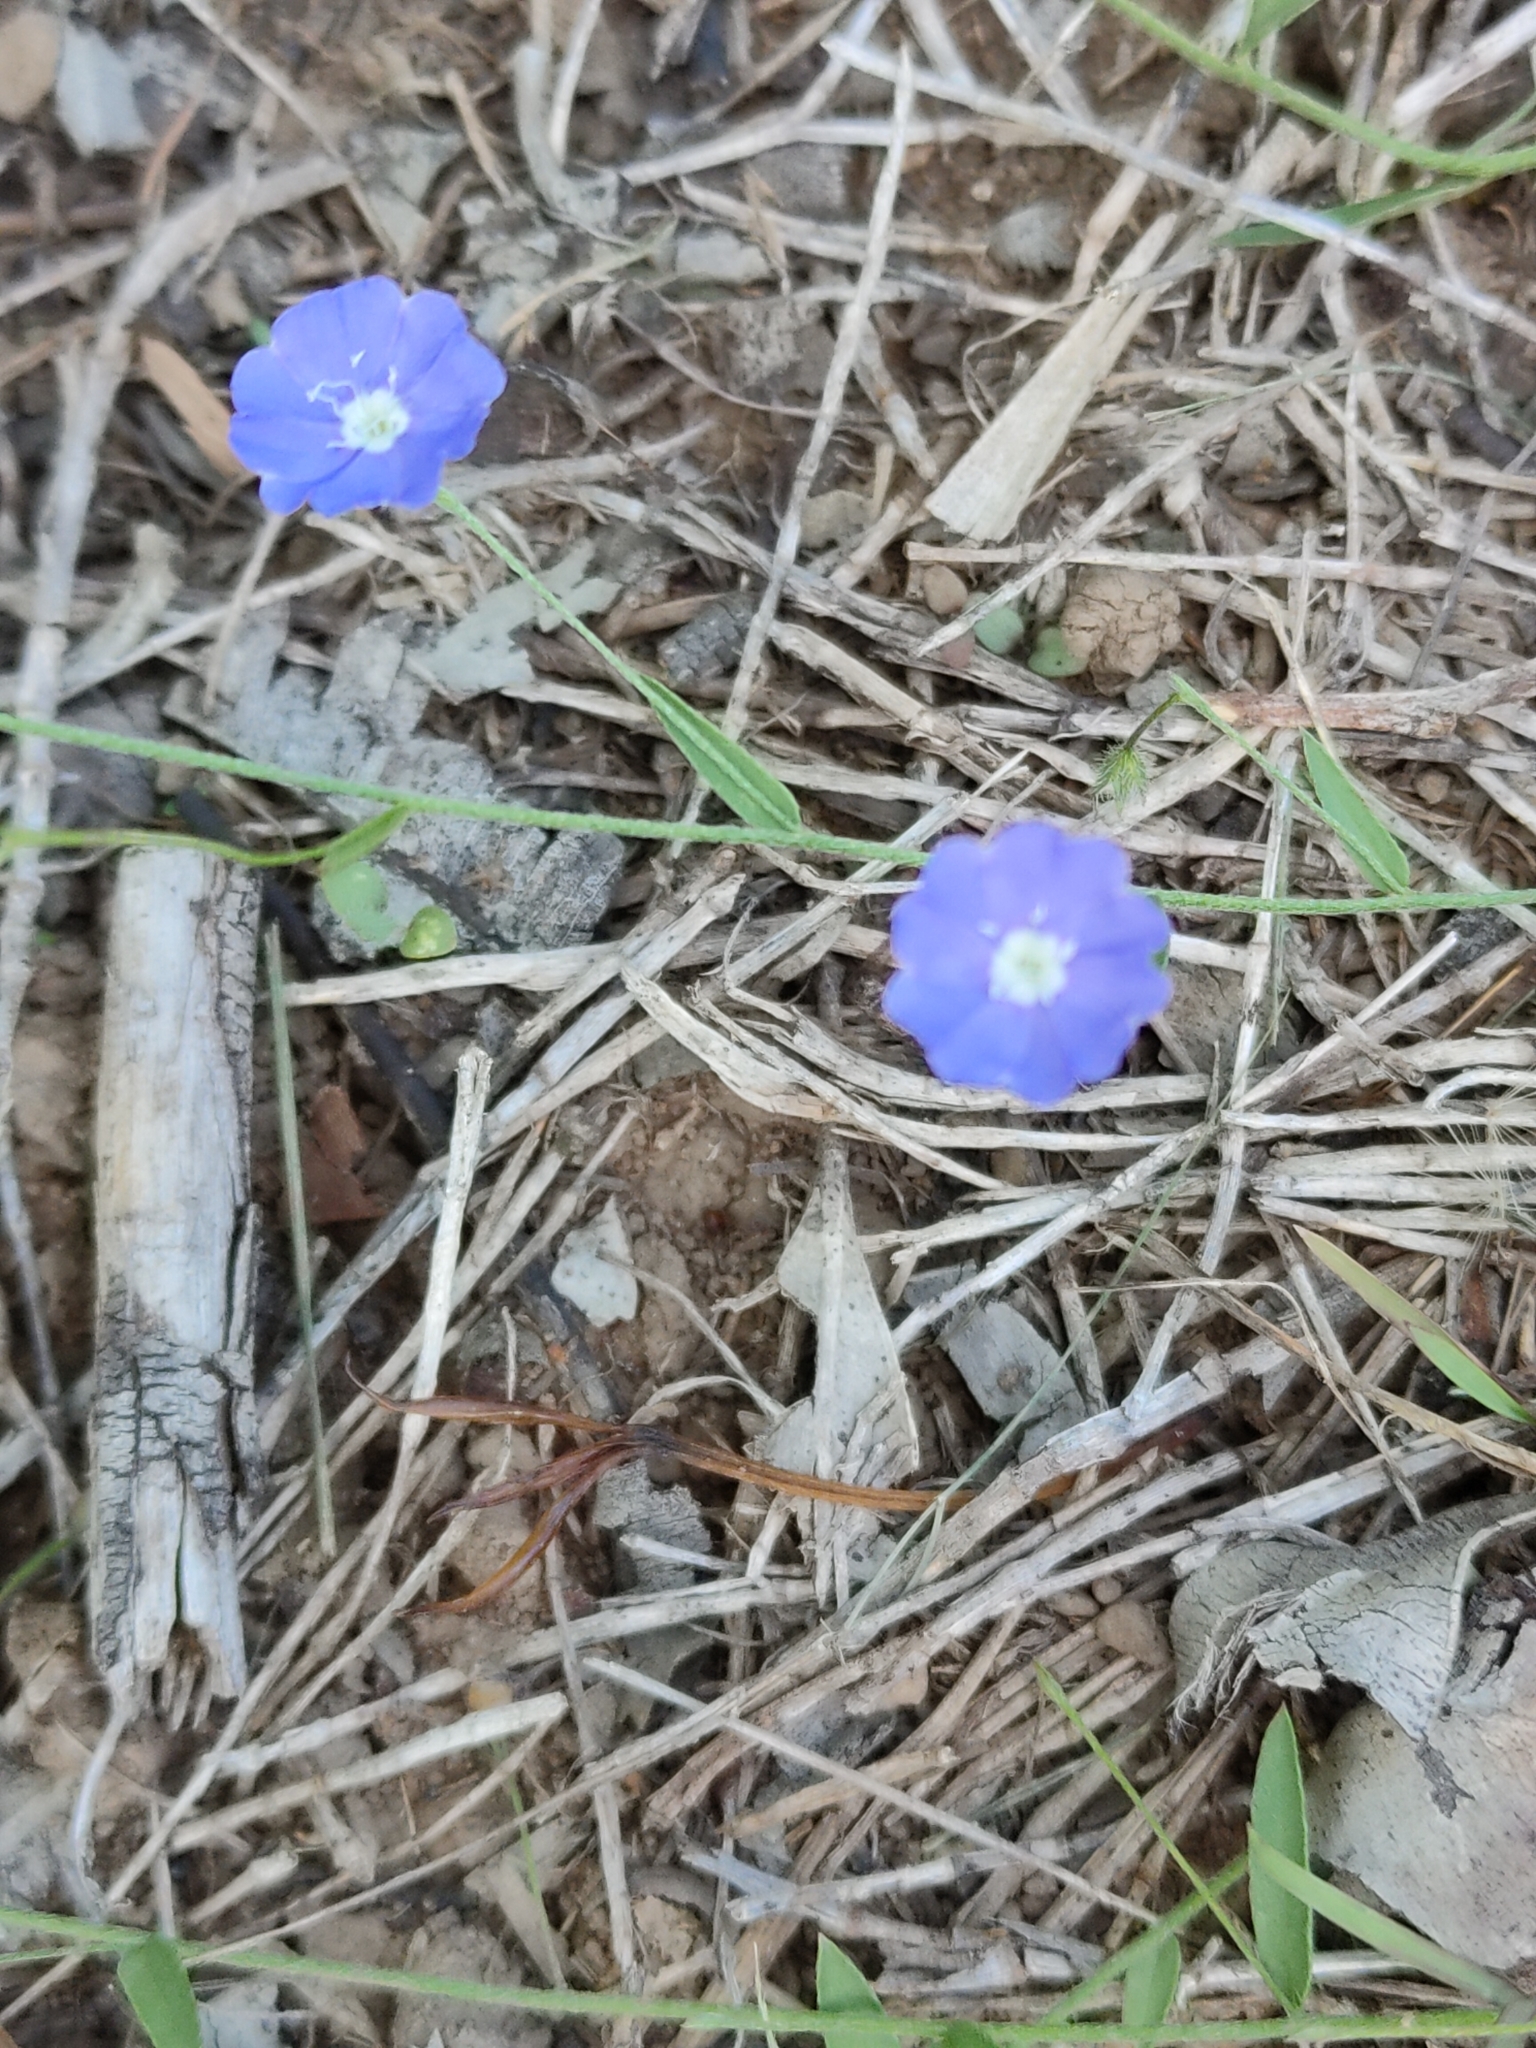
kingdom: Plantae
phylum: Tracheophyta
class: Magnoliopsida
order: Solanales
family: Convolvulaceae
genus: Evolvulus
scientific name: Evolvulus alsinoides
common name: Slender dwarf morning-glory
